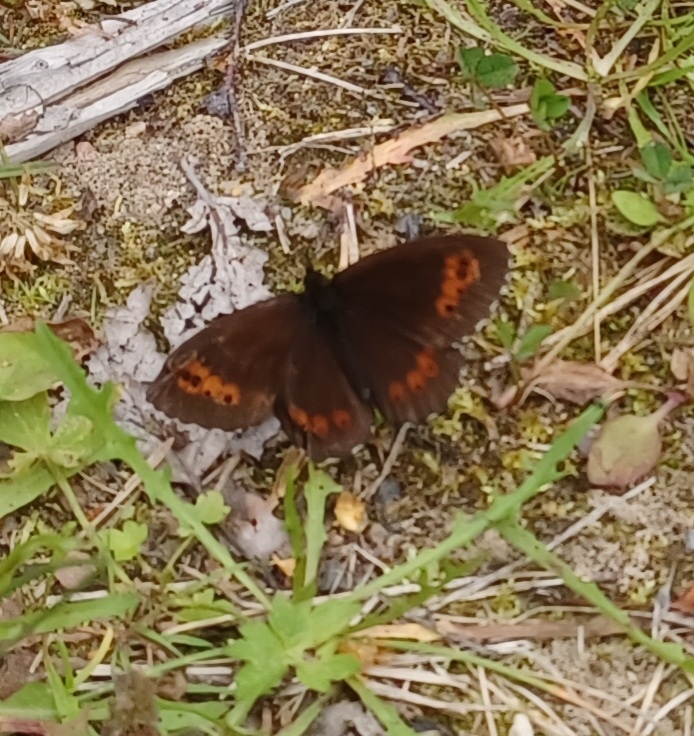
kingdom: Animalia
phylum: Arthropoda
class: Insecta
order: Lepidoptera
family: Nymphalidae
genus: Erebia
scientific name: Erebia ligea
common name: Arran brown
